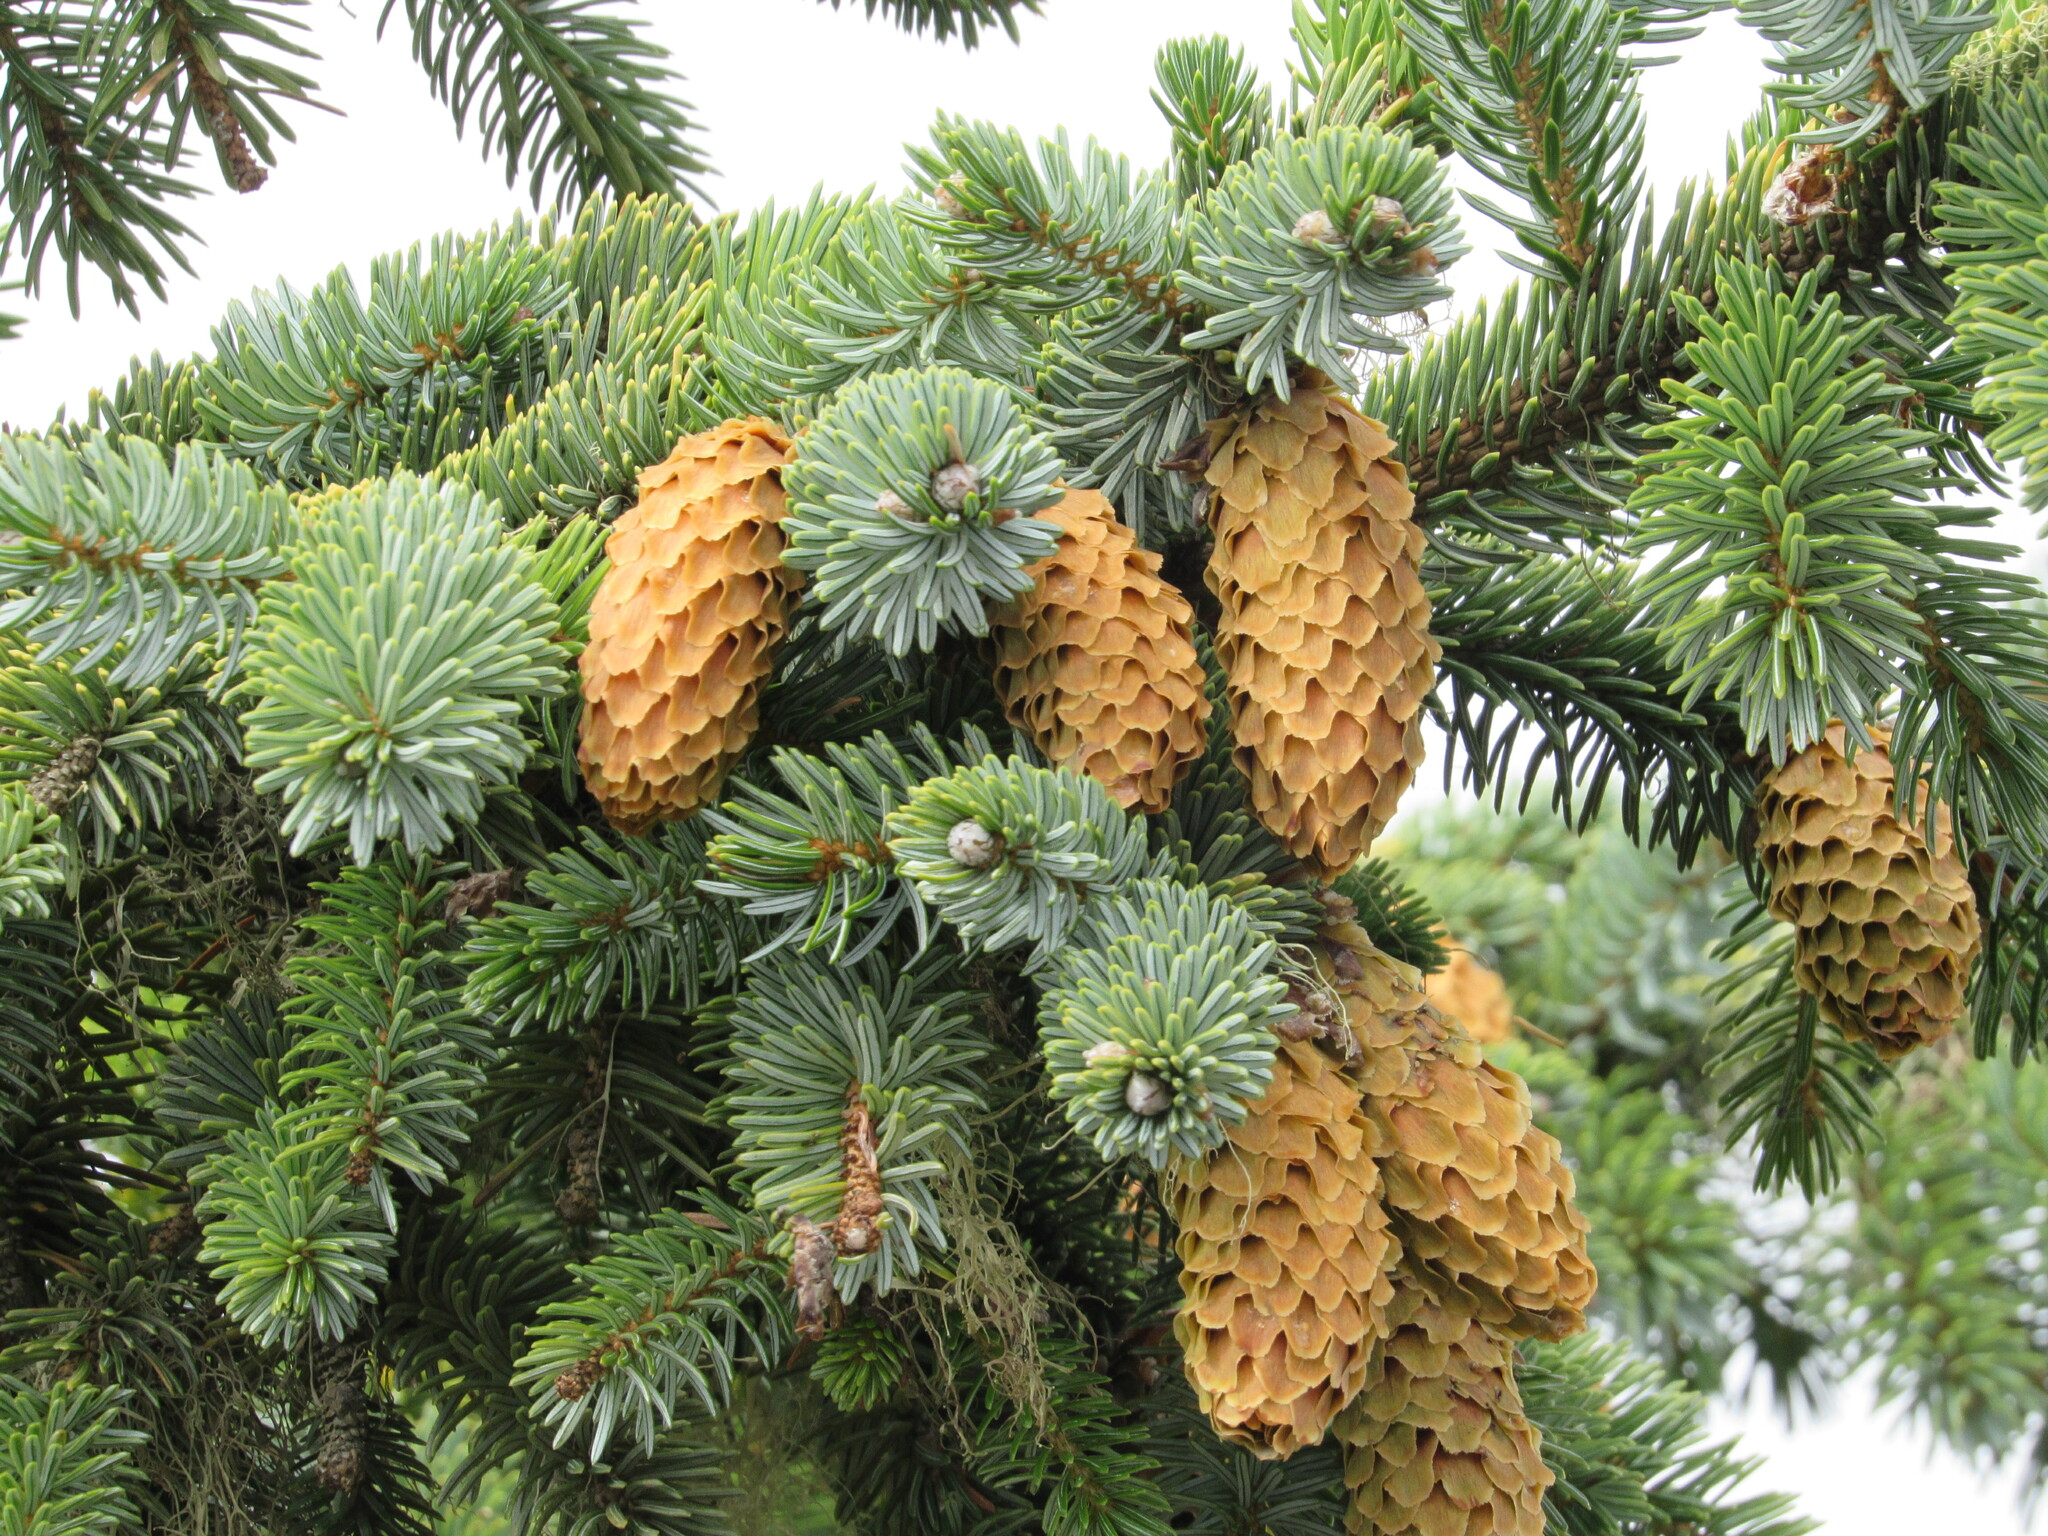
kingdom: Plantae
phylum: Tracheophyta
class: Pinopsida
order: Pinales
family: Pinaceae
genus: Picea
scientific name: Picea sitchensis
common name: Sitka spruce
